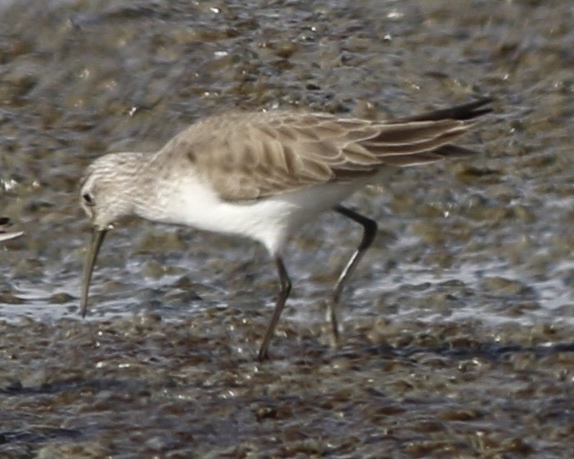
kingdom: Animalia
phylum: Chordata
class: Aves
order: Charadriiformes
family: Scolopacidae
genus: Calidris
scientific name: Calidris ferruginea
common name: Curlew sandpiper
